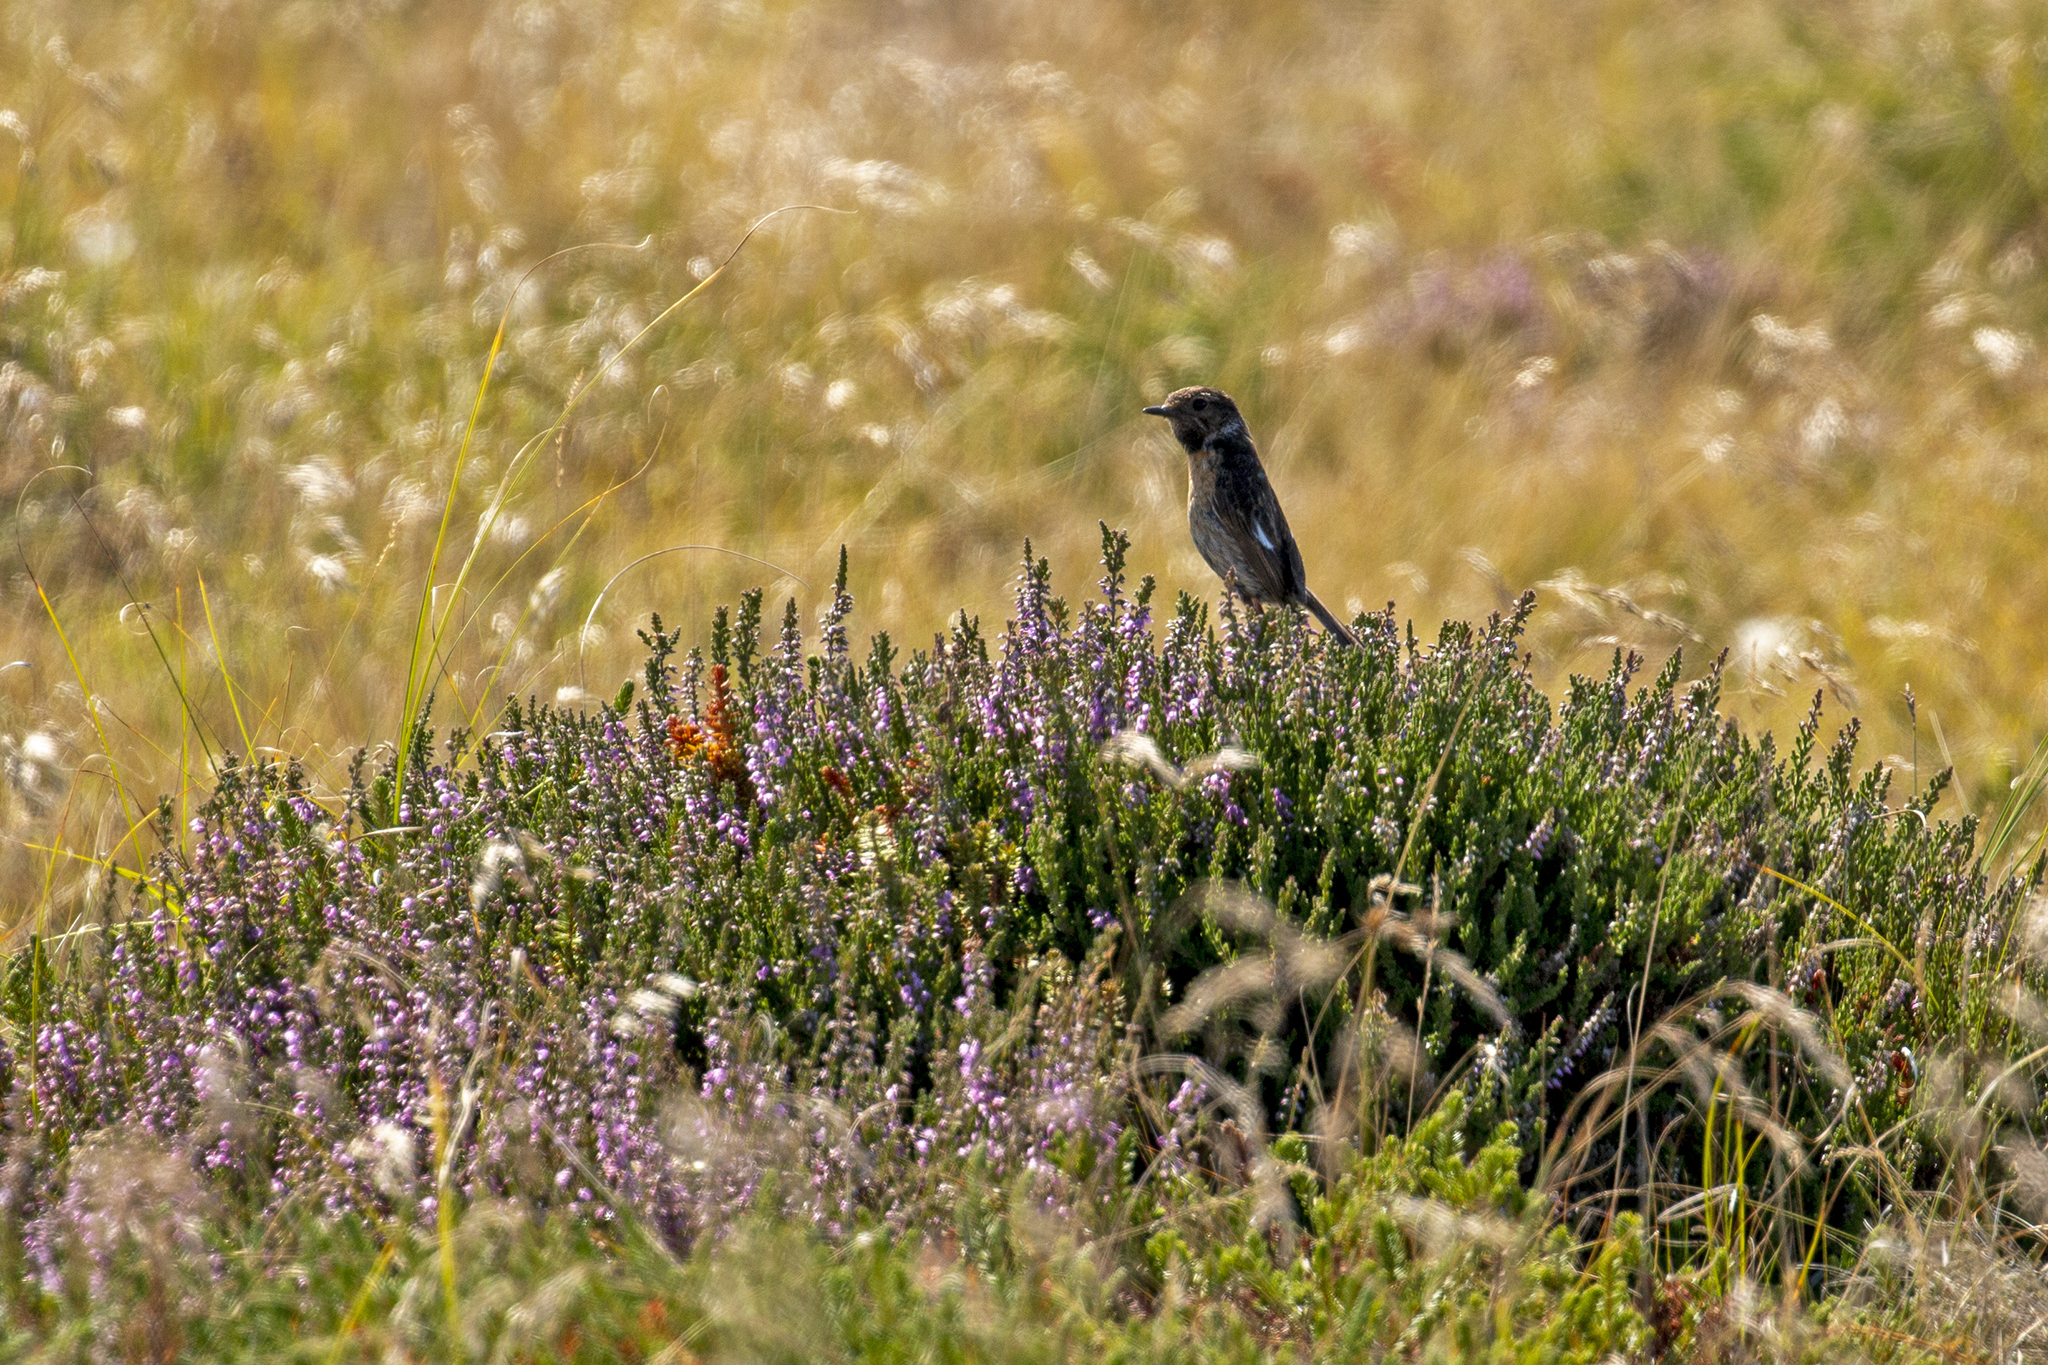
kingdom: Animalia
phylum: Chordata
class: Aves
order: Passeriformes
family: Muscicapidae
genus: Saxicola
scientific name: Saxicola rubicola
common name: European stonechat
